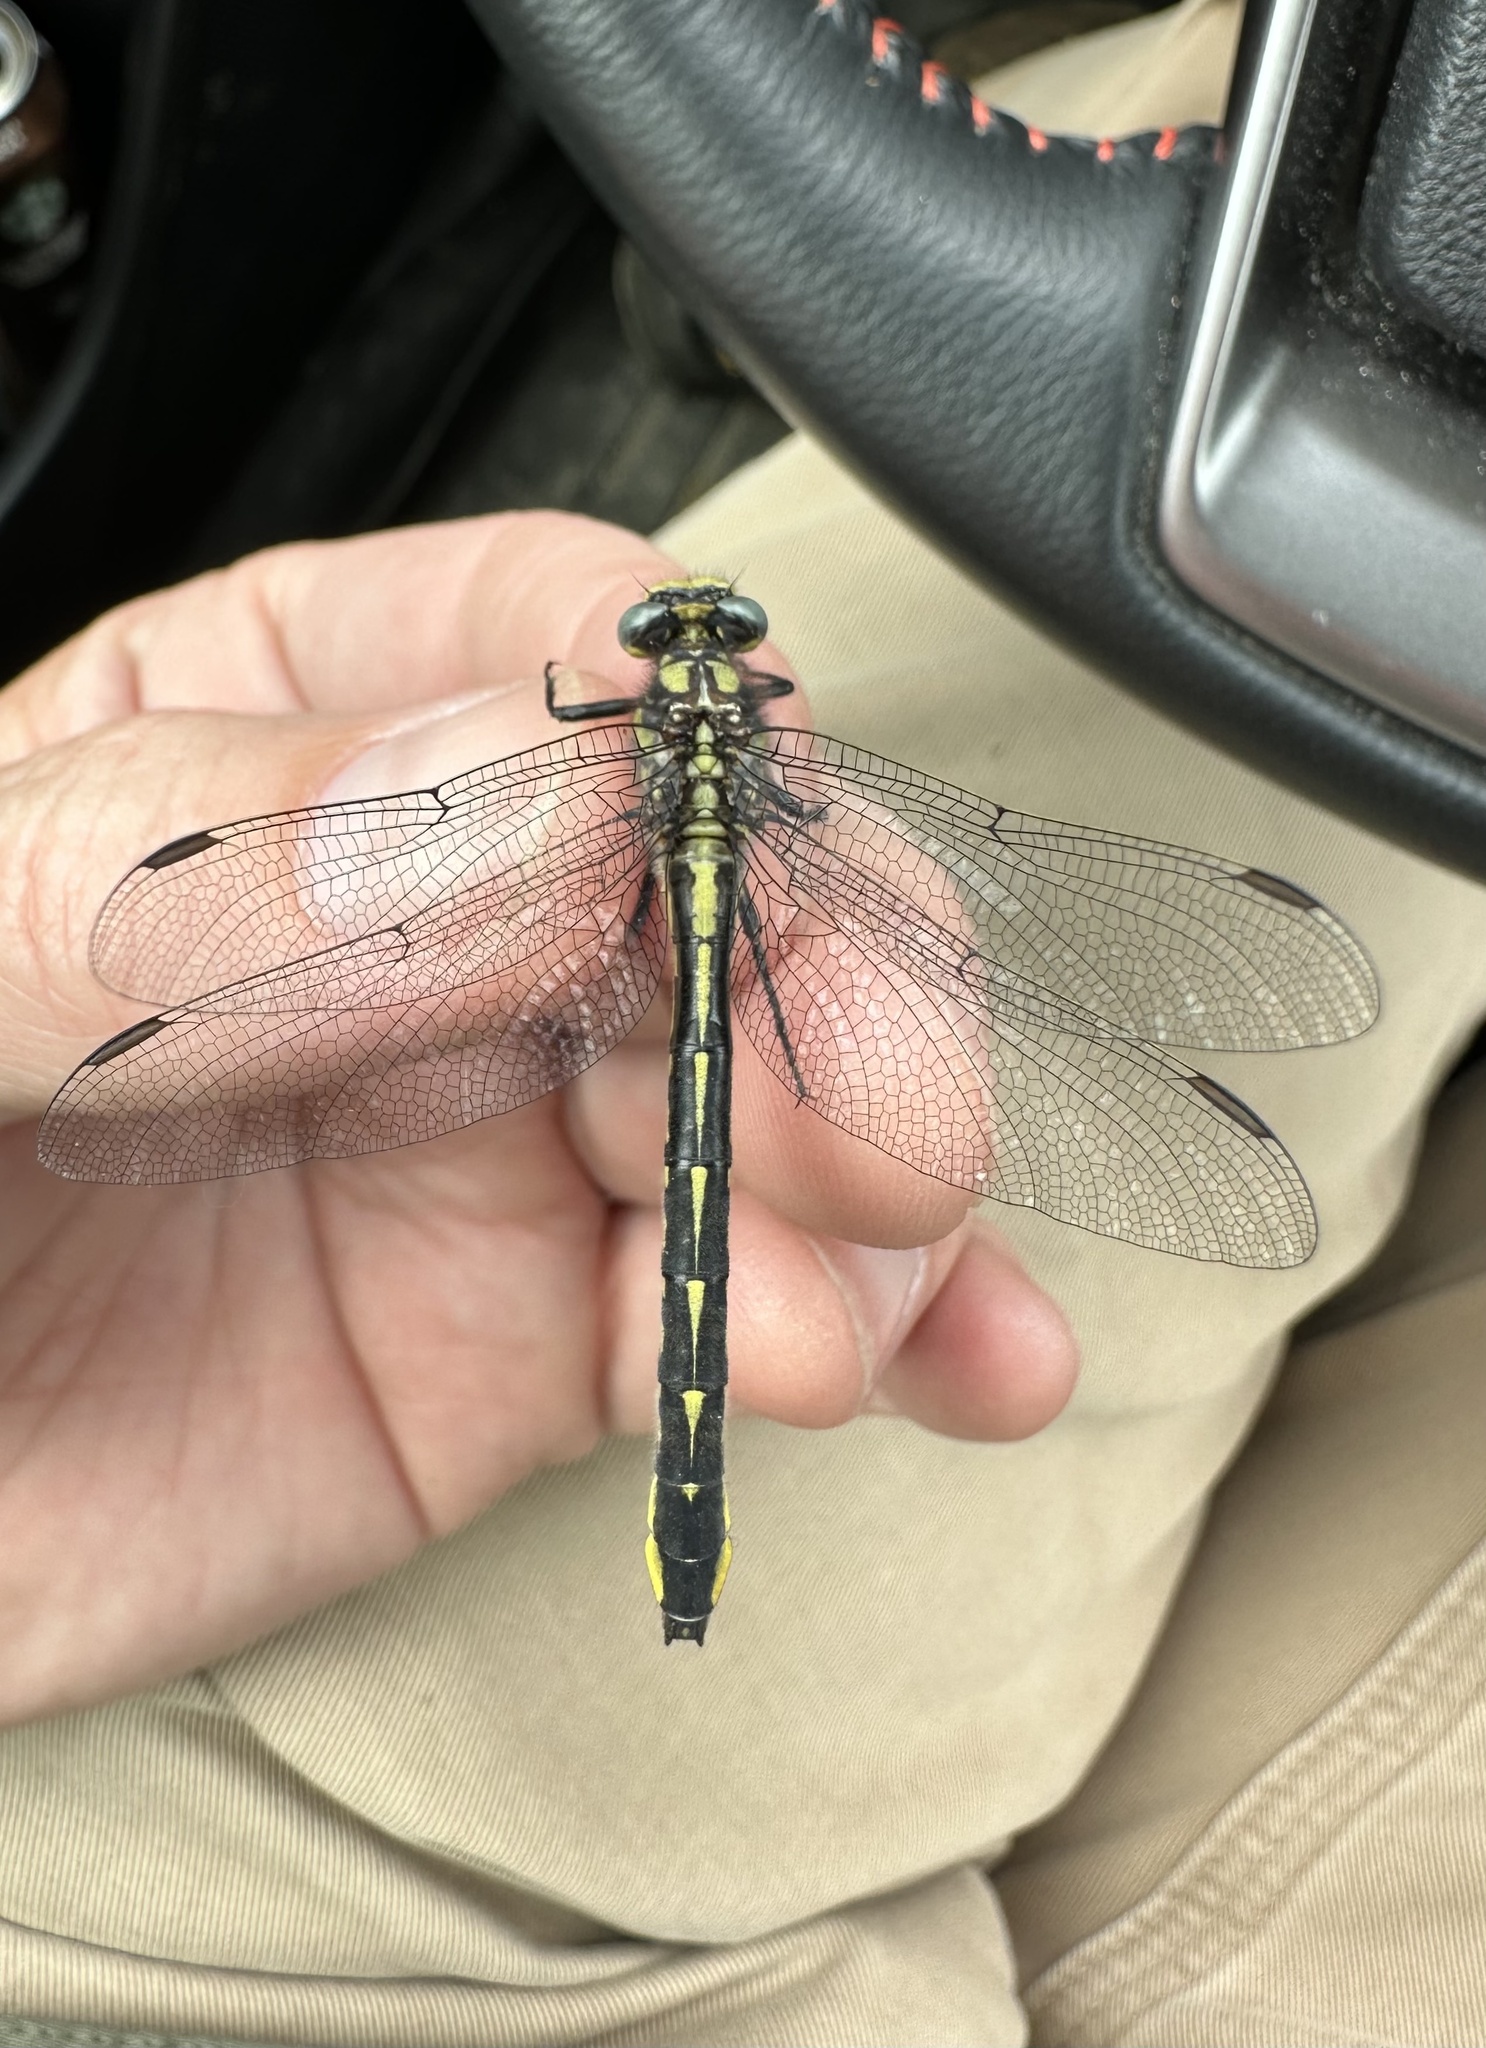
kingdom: Animalia
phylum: Arthropoda
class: Insecta
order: Odonata
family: Gomphidae
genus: Phanogomphus
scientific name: Phanogomphus borealis
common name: Beaverpond clubtail
